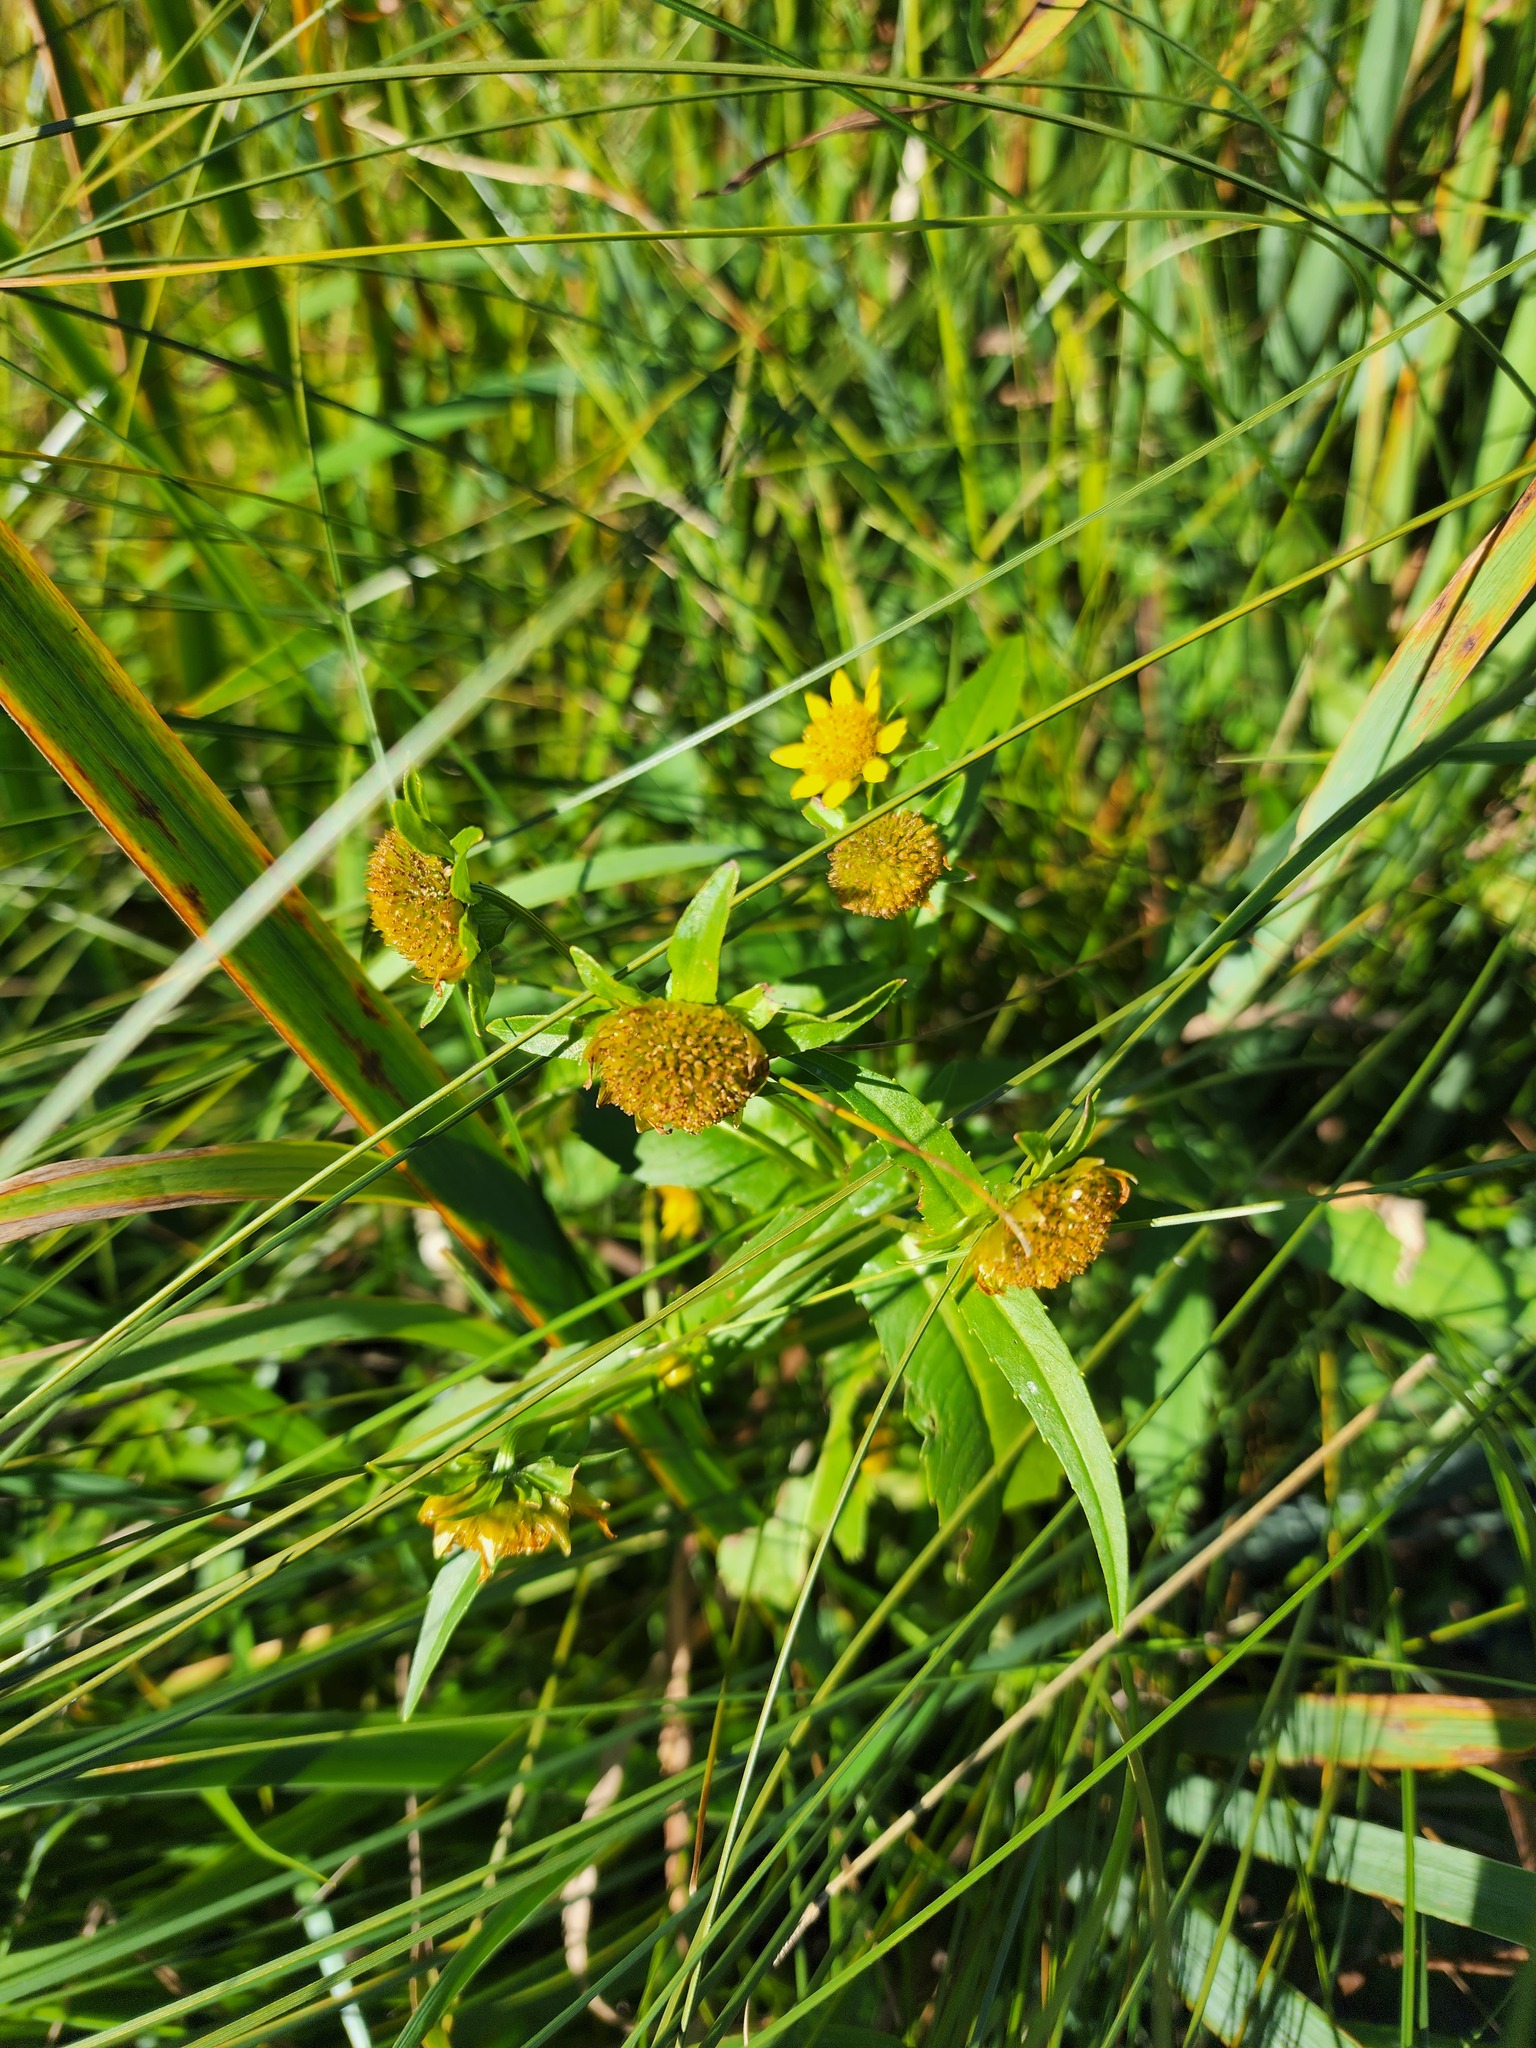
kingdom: Plantae
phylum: Tracheophyta
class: Magnoliopsida
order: Asterales
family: Asteraceae
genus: Bidens
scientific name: Bidens cernua
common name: Nodding bur-marigold
